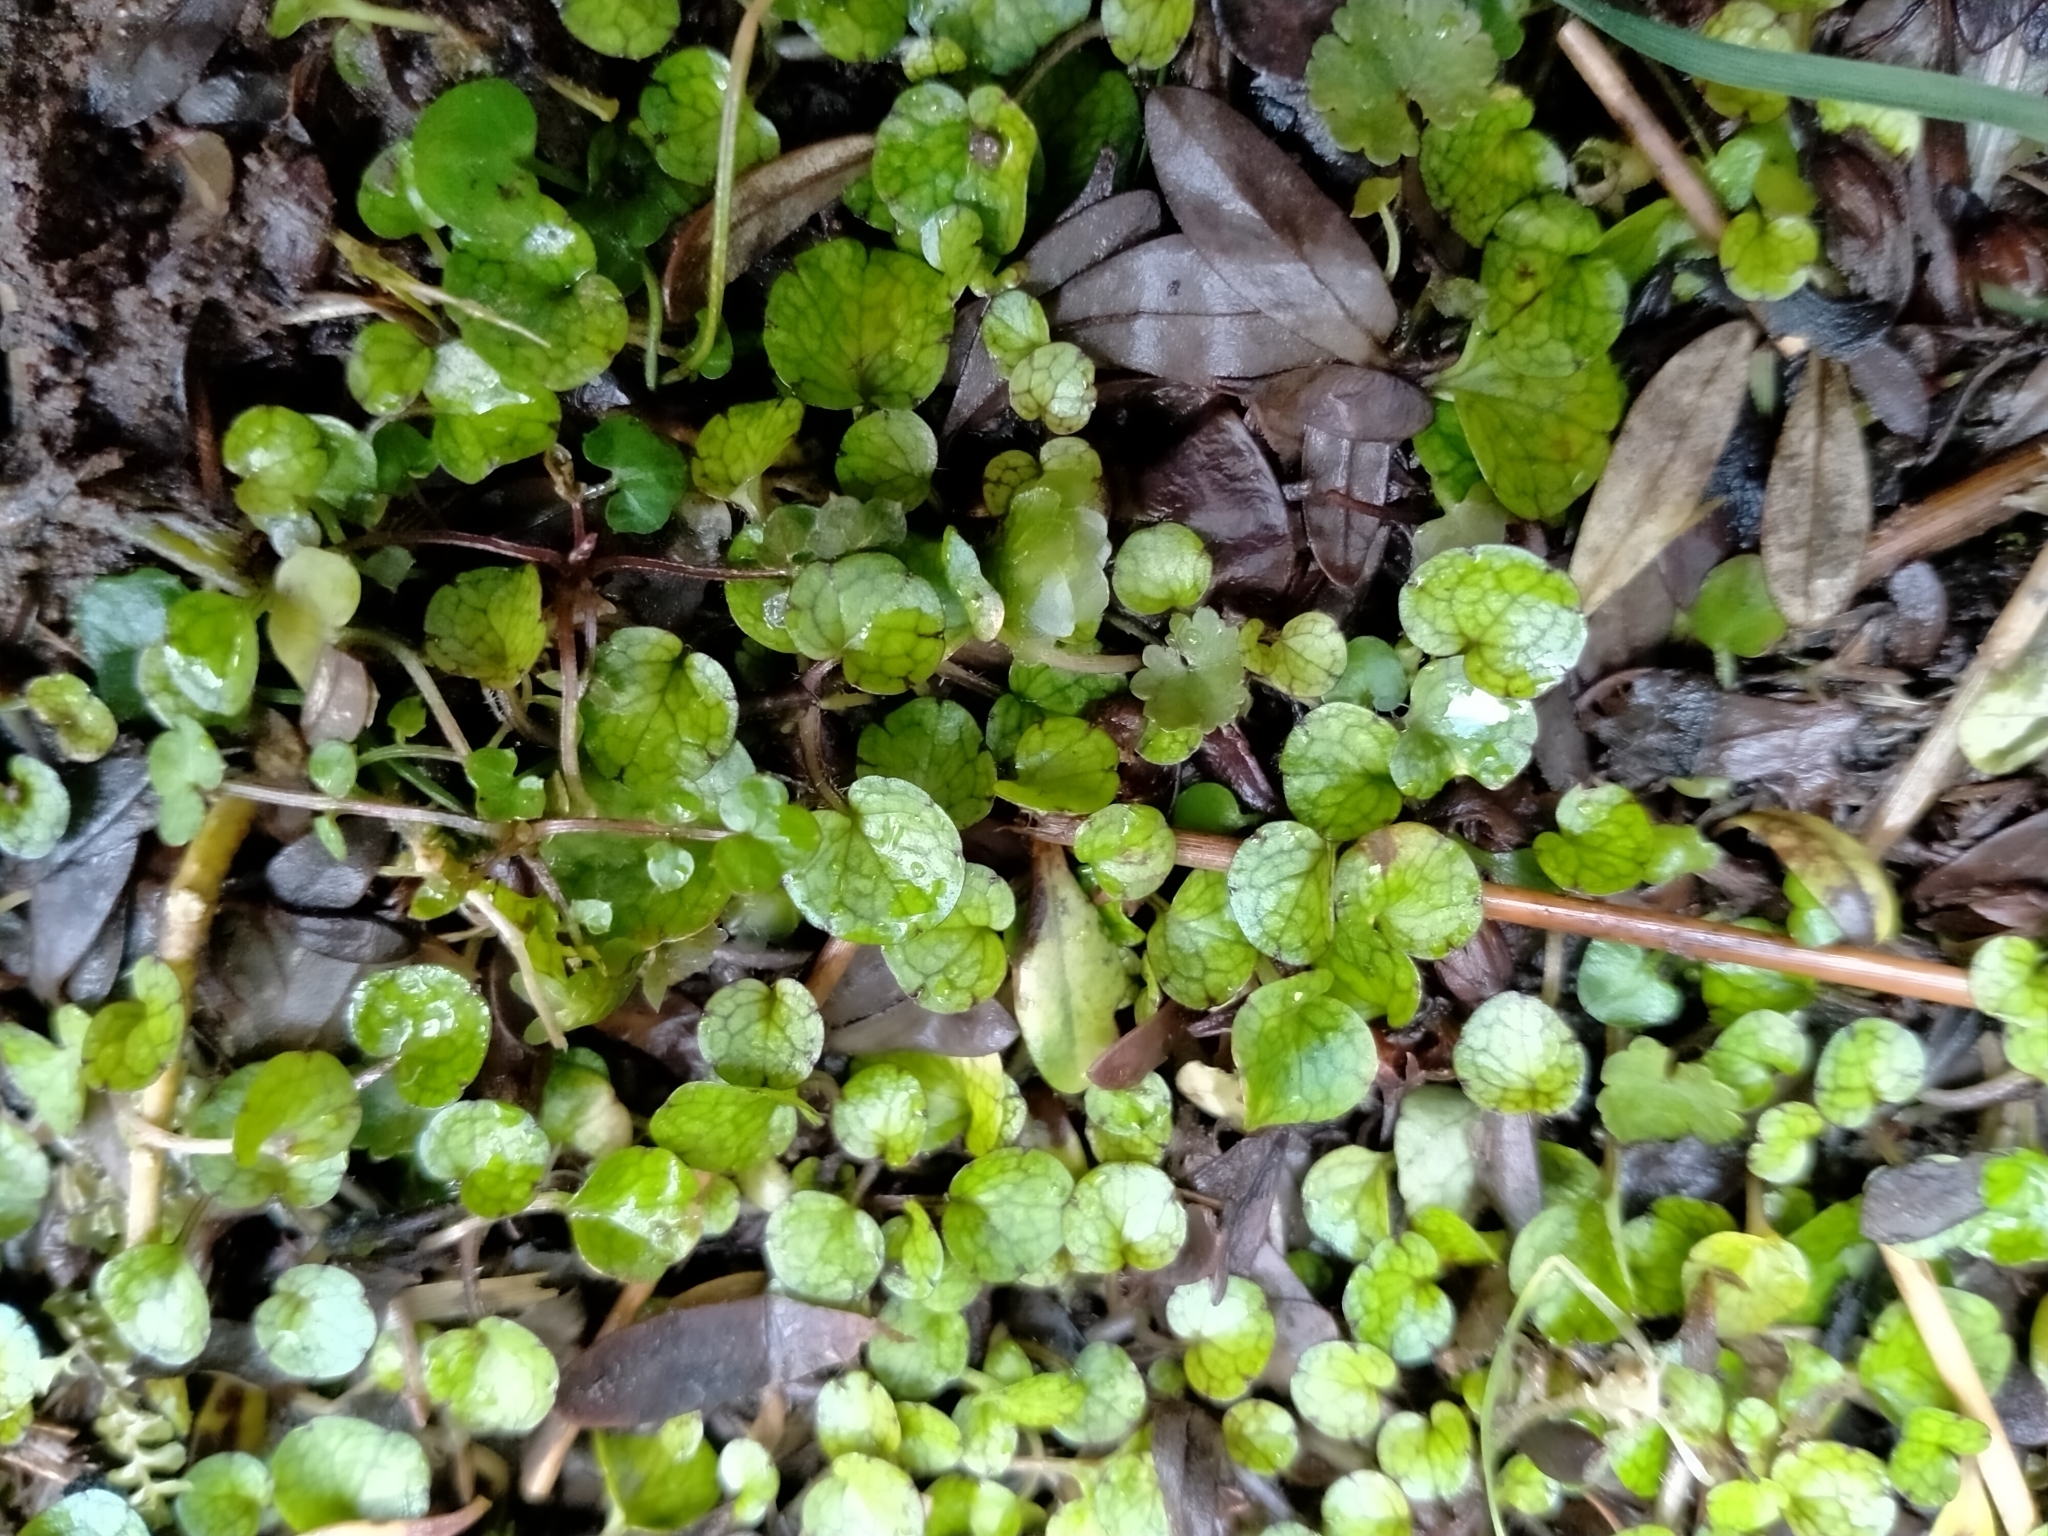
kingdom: Plantae
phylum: Tracheophyta
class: Magnoliopsida
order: Lamiales
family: Plantaginaceae
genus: Ourisia
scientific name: Ourisia modesta
